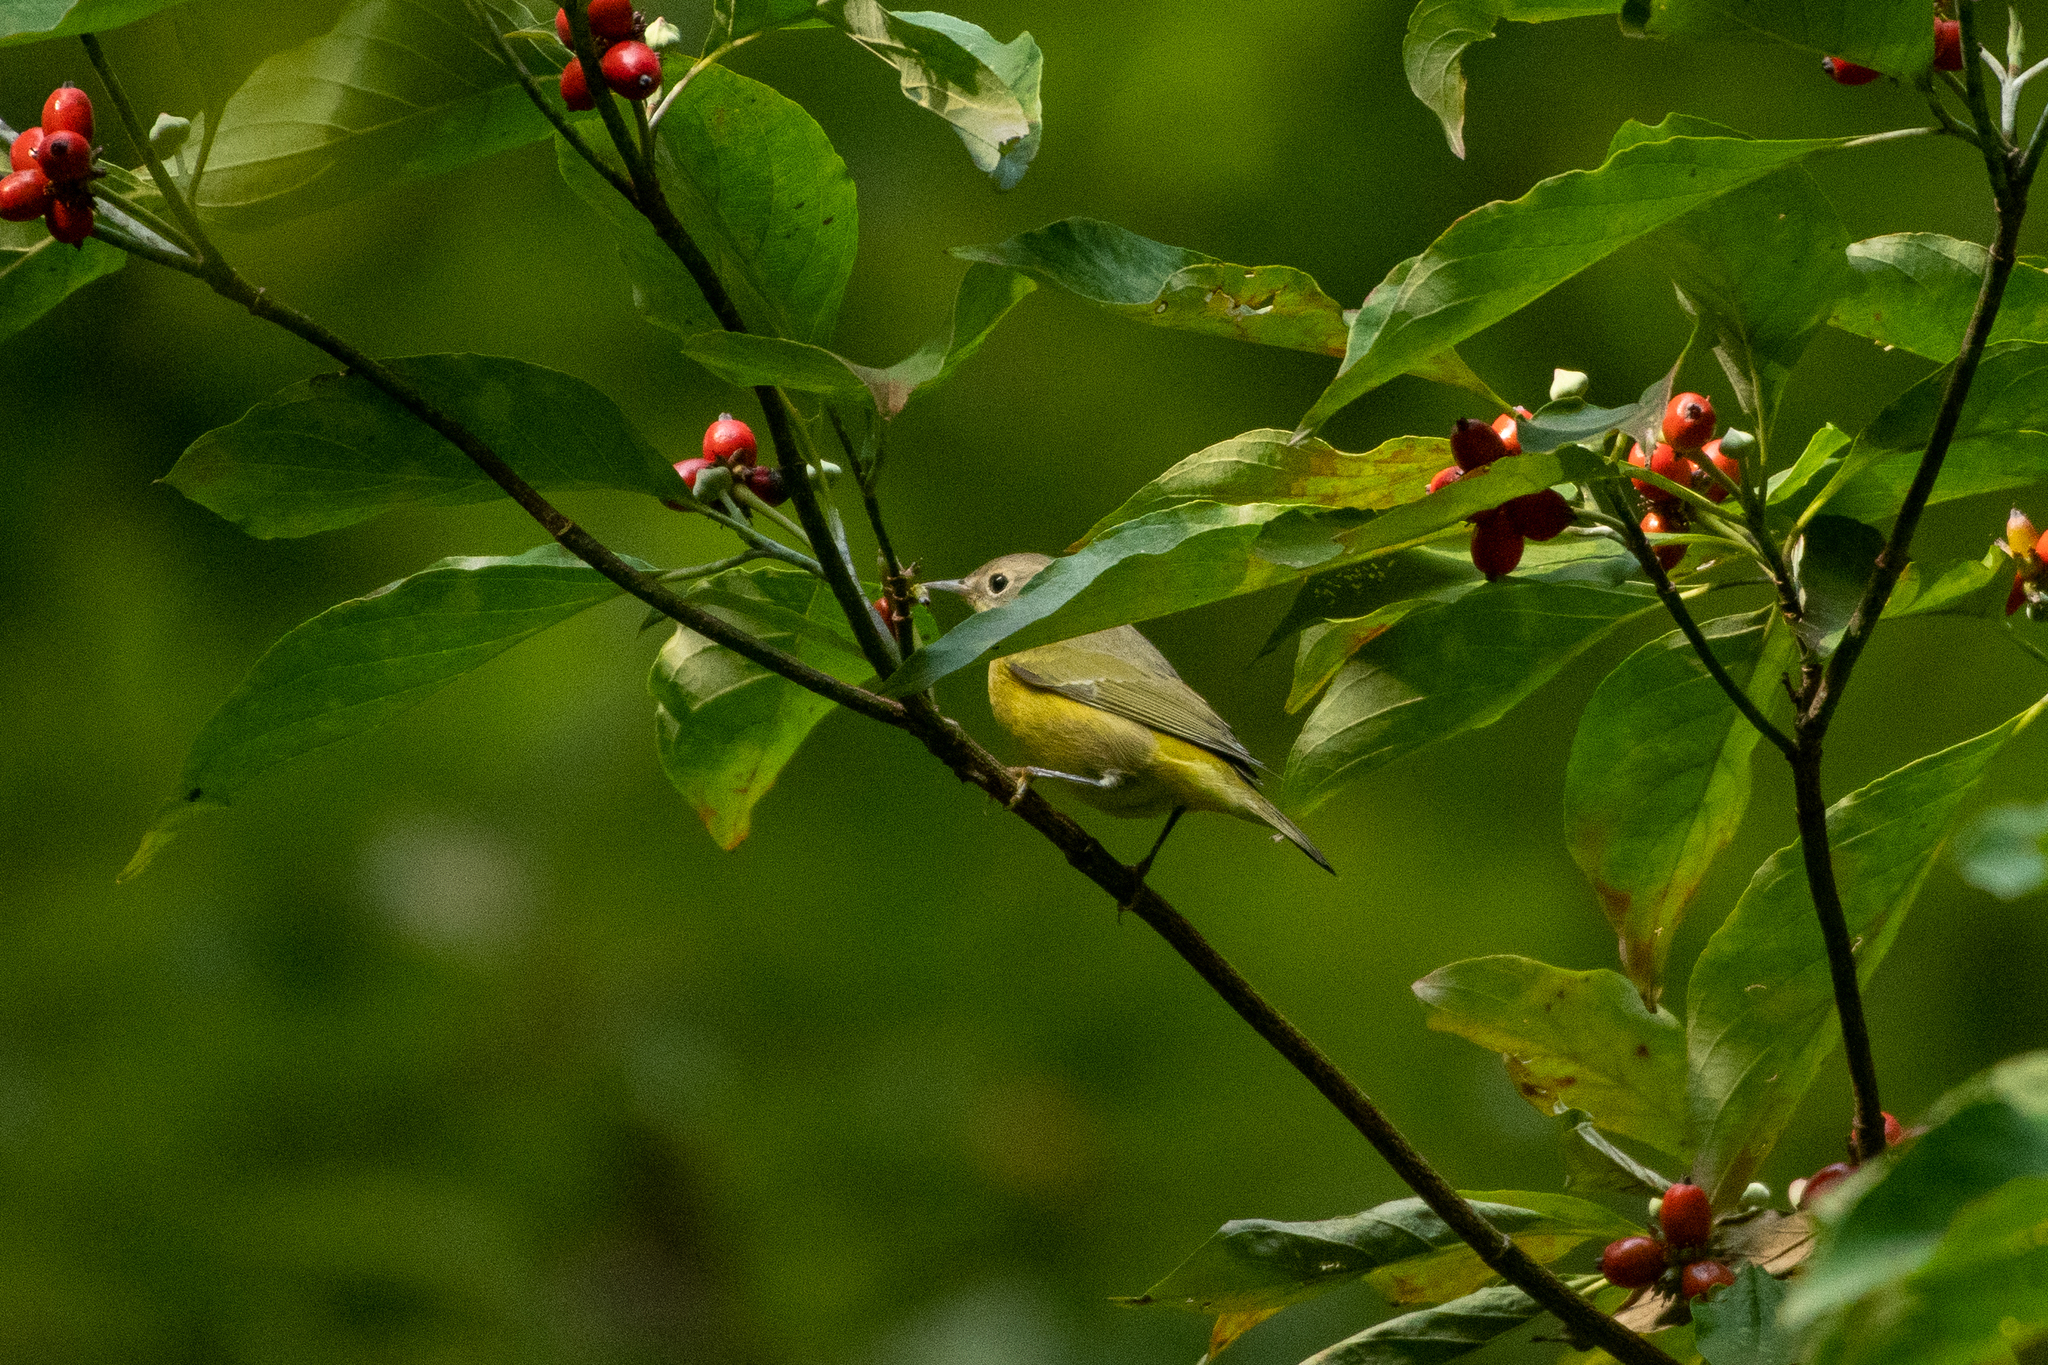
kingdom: Animalia
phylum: Chordata
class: Aves
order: Passeriformes
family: Parulidae
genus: Leiothlypis
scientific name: Leiothlypis ruficapilla
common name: Nashville warbler
